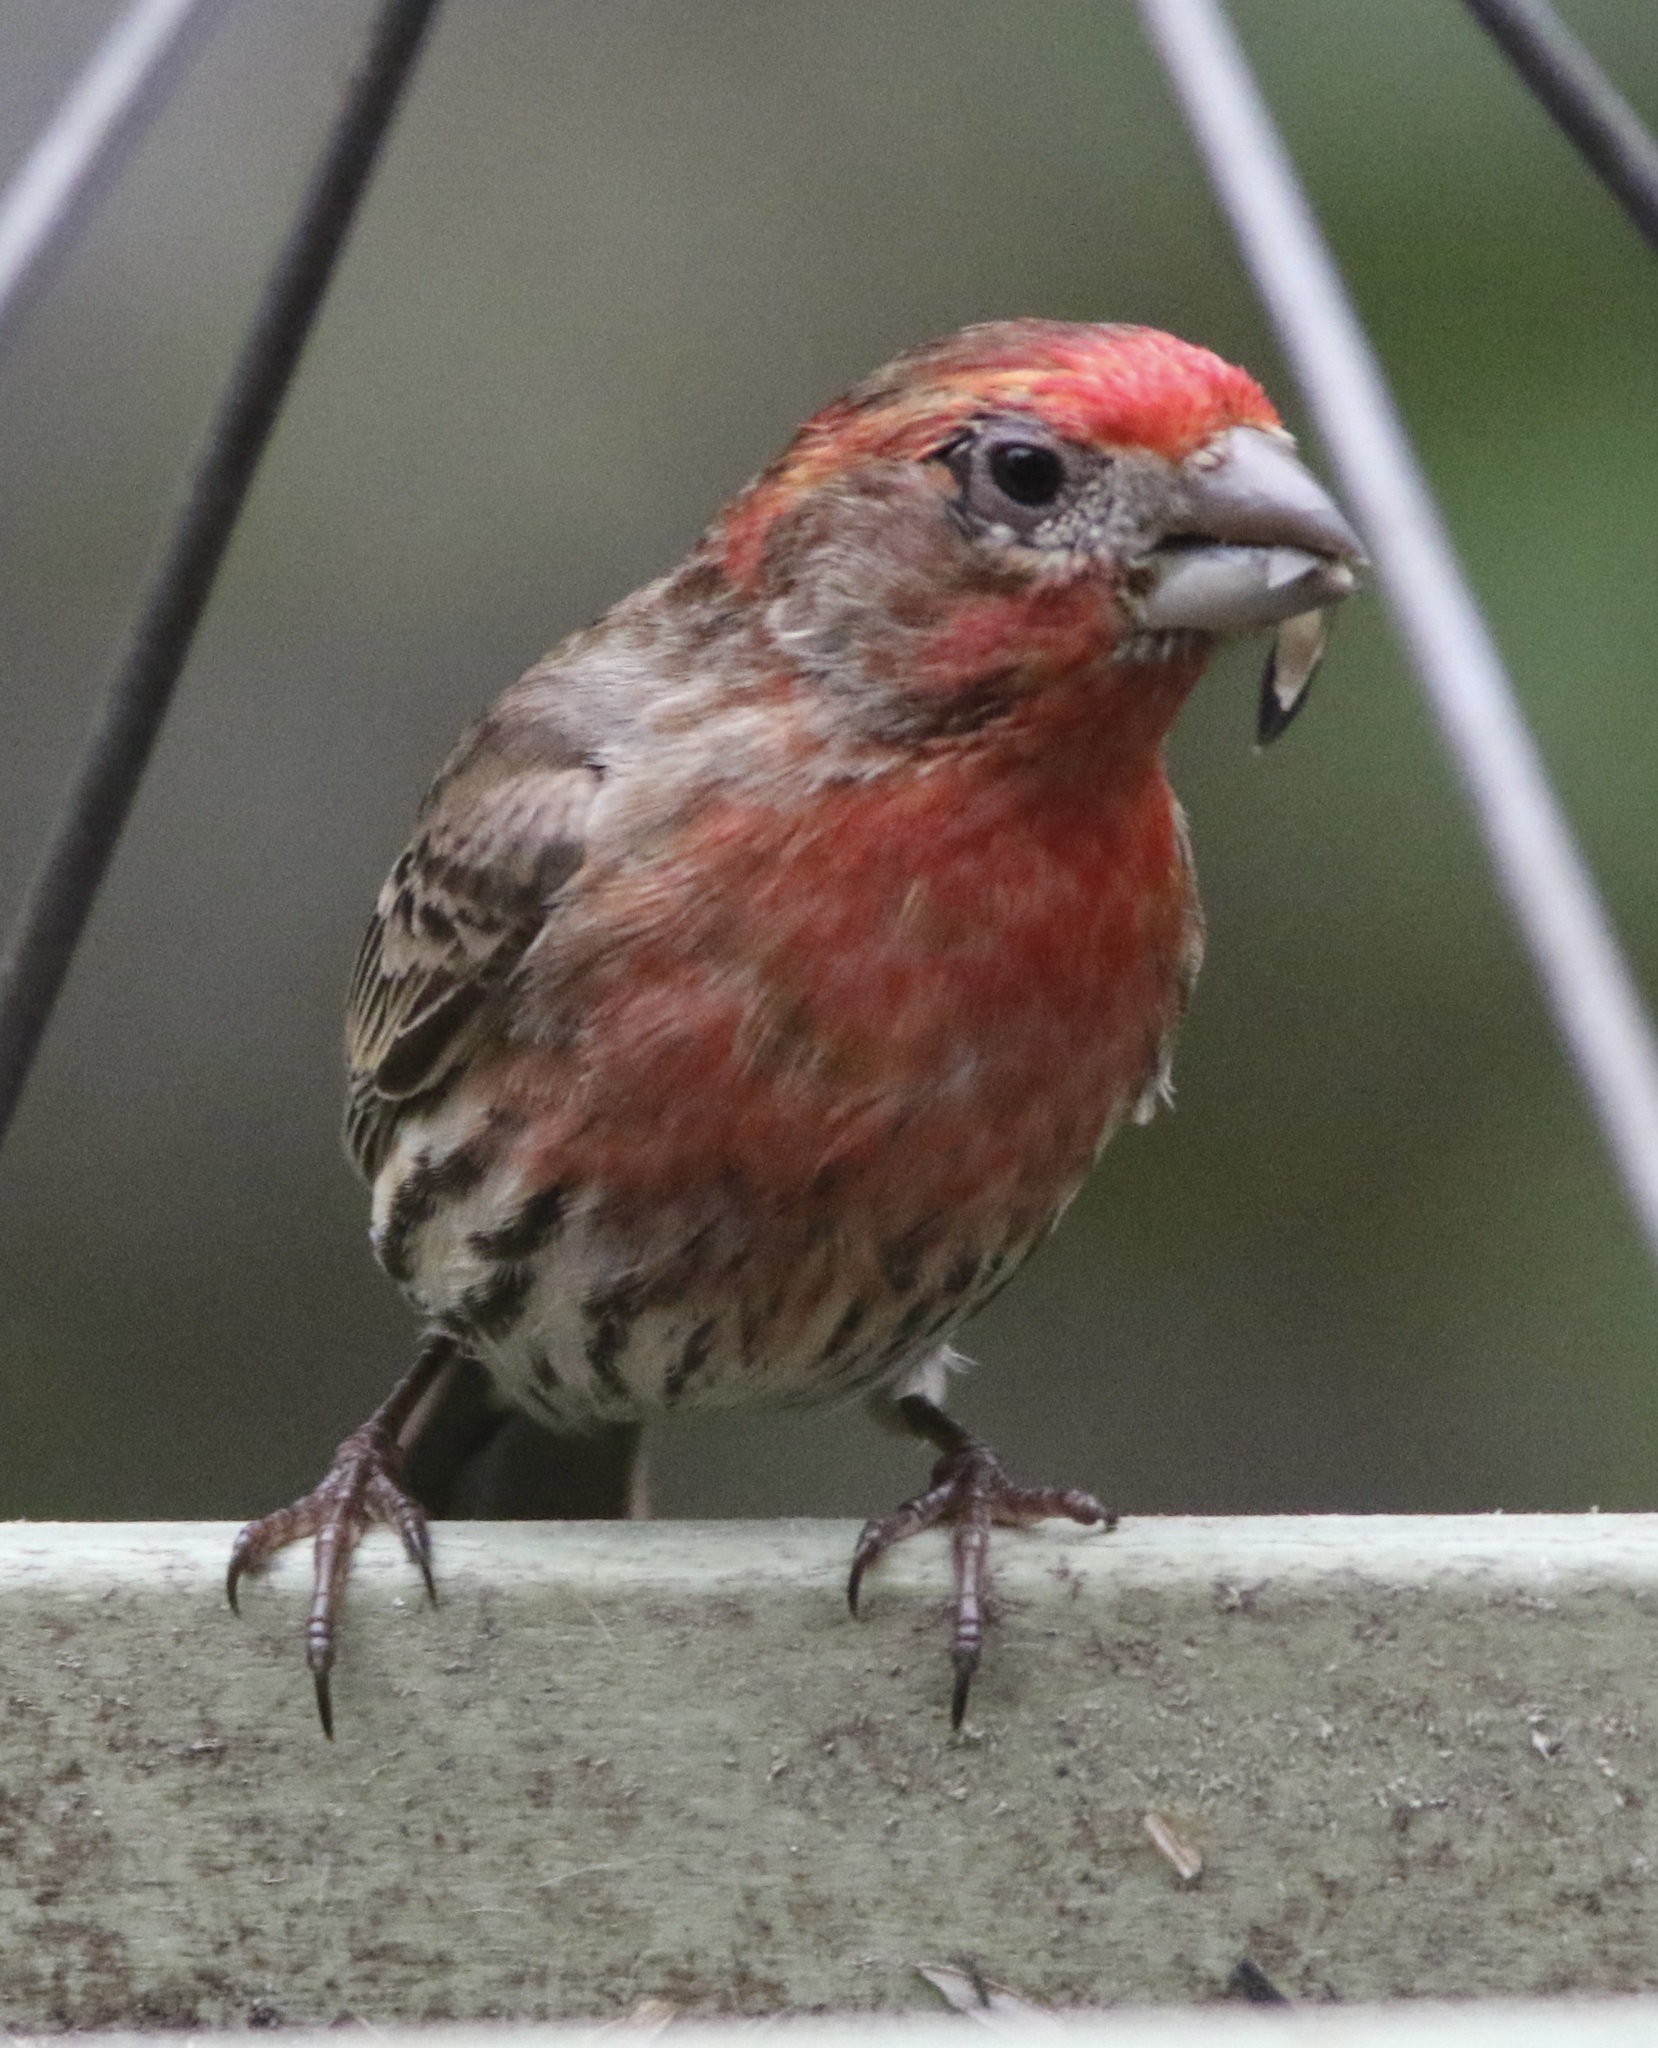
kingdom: Animalia
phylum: Chordata
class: Aves
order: Passeriformes
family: Fringillidae
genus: Haemorhous
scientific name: Haemorhous mexicanus
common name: House finch
